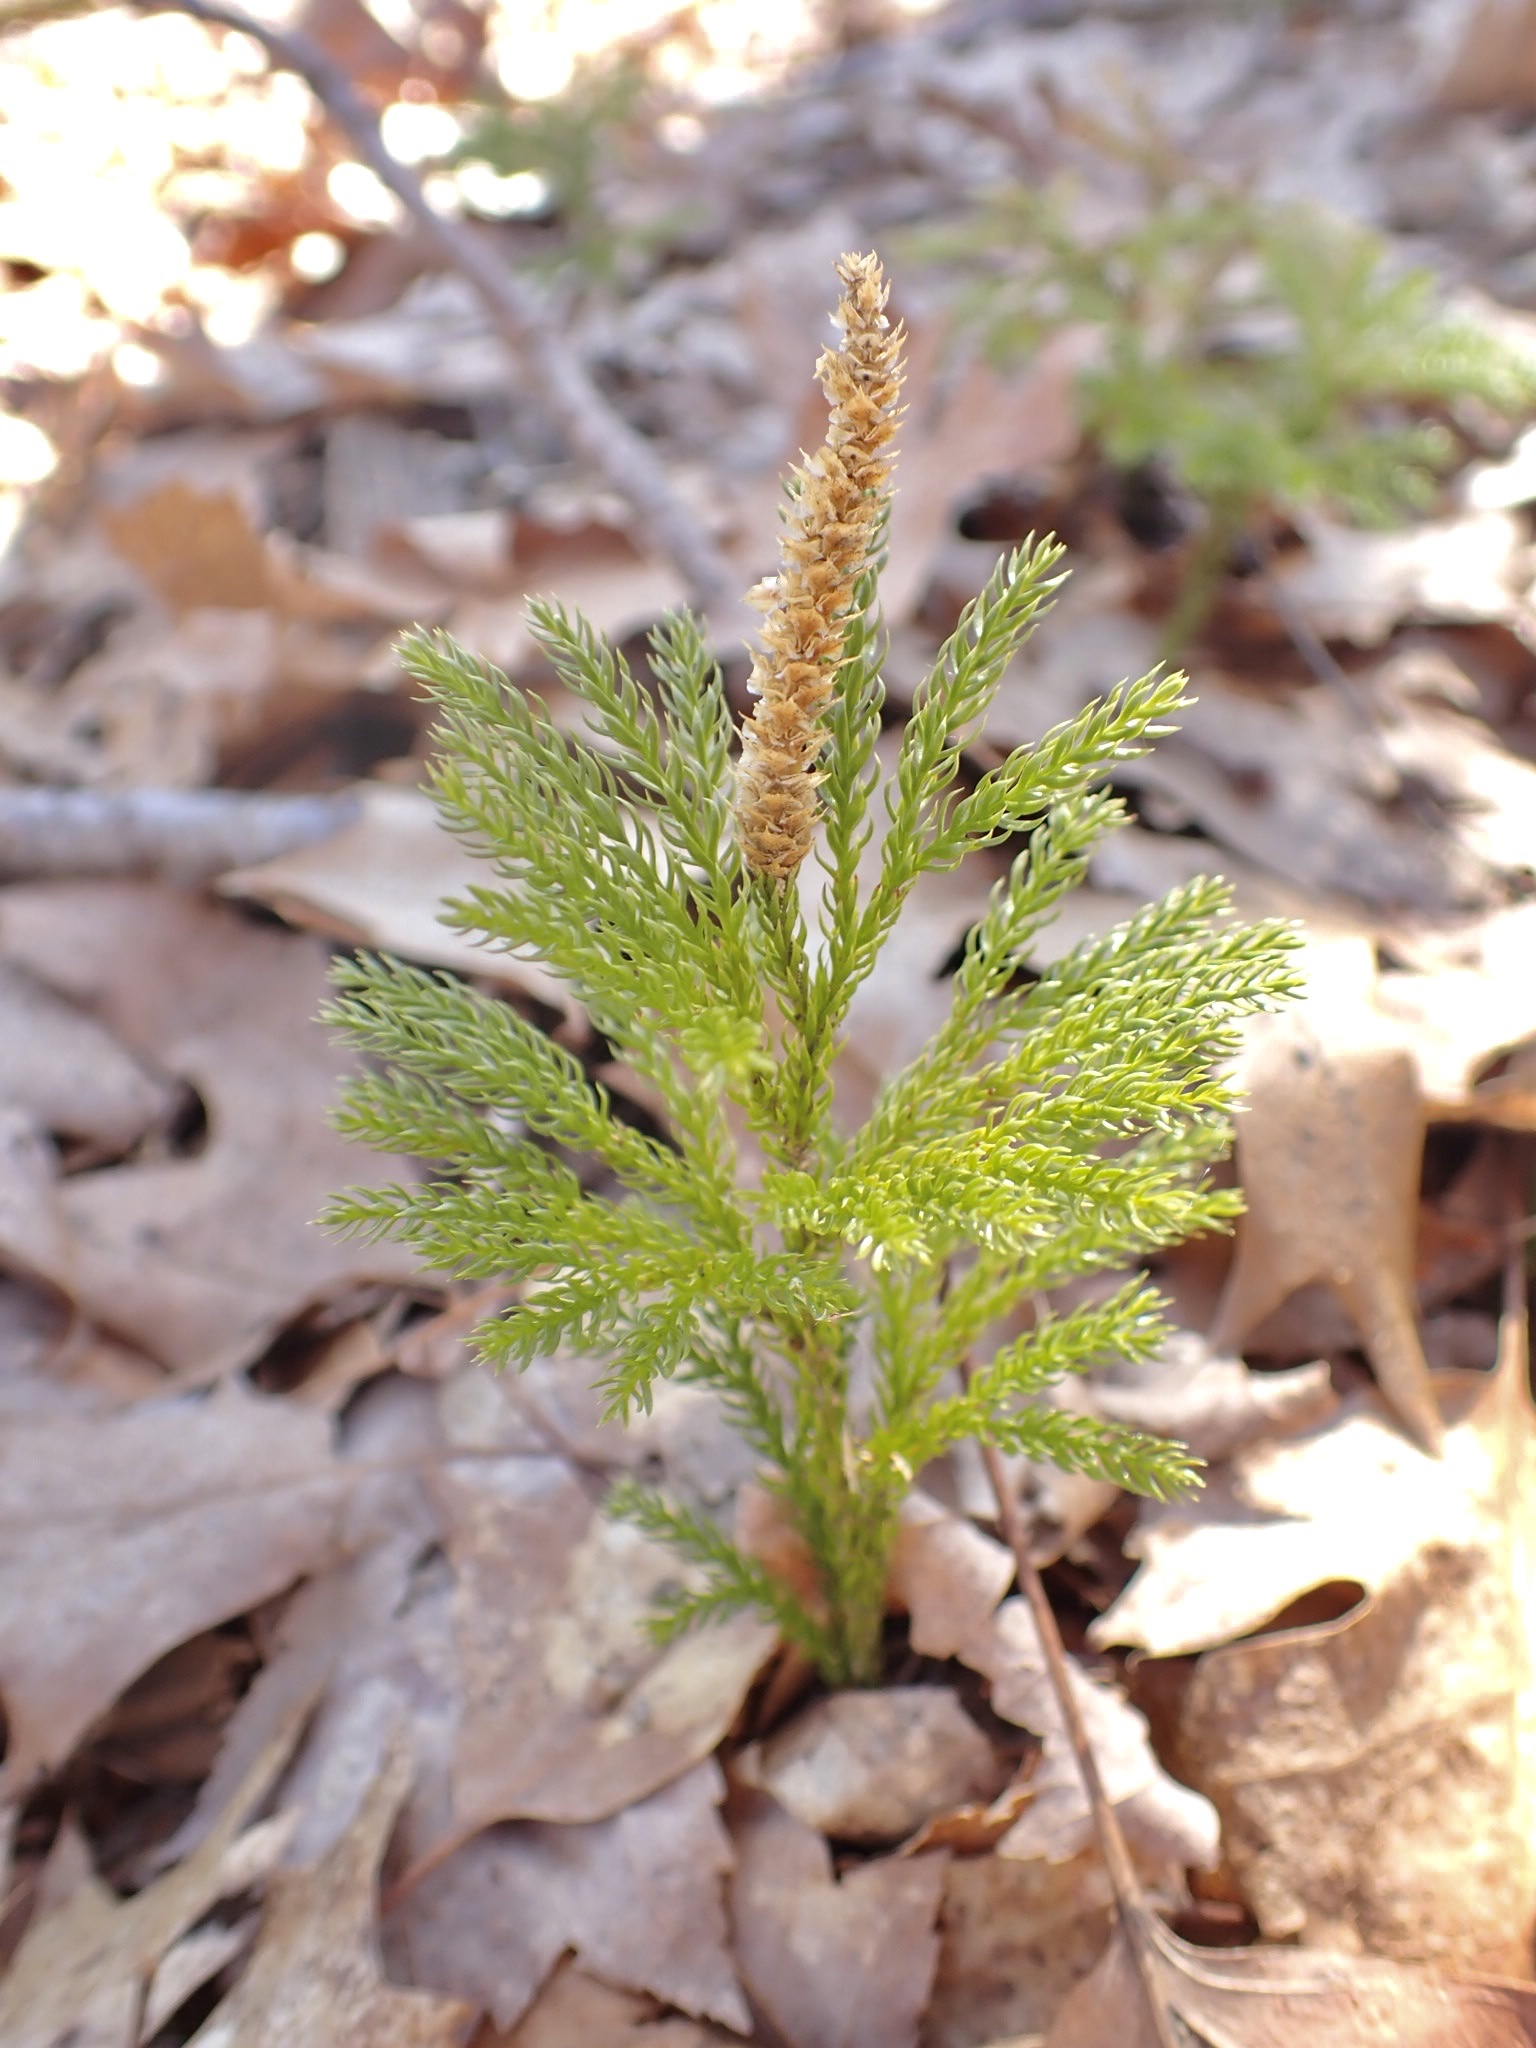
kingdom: Plantae
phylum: Tracheophyta
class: Lycopodiopsida
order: Lycopodiales
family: Lycopodiaceae
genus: Dendrolycopodium
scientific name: Dendrolycopodium obscurum
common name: Common ground-pine
